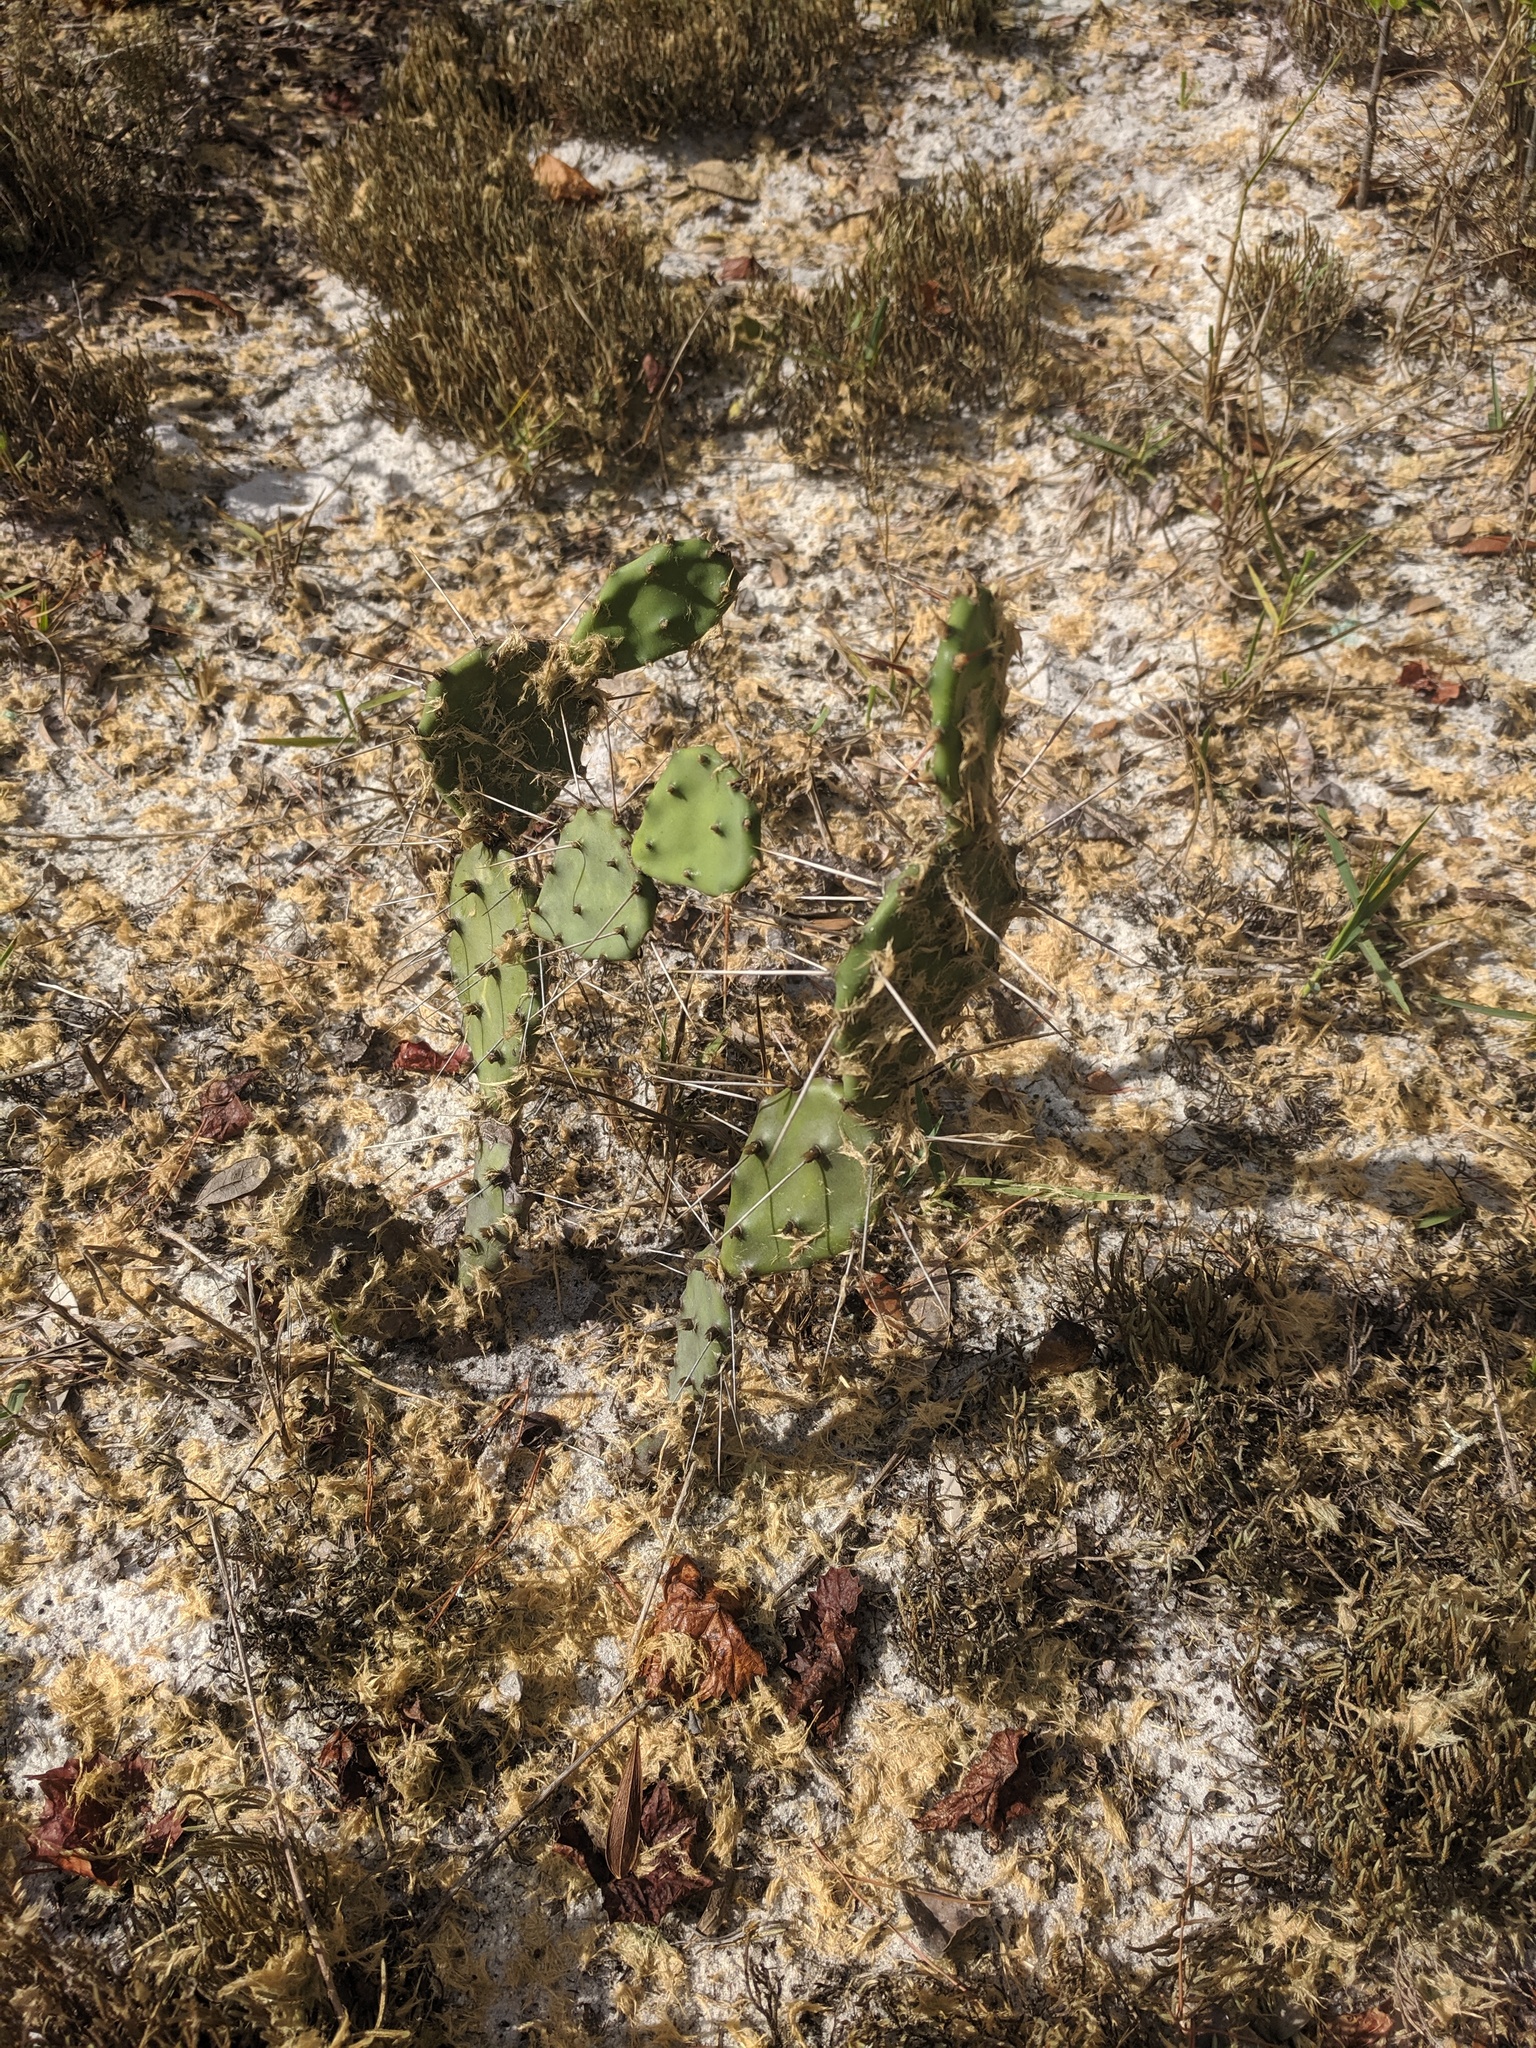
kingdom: Plantae
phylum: Tracheophyta
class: Magnoliopsida
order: Caryophyllales
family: Cactaceae
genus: Opuntia
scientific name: Opuntia austrina
